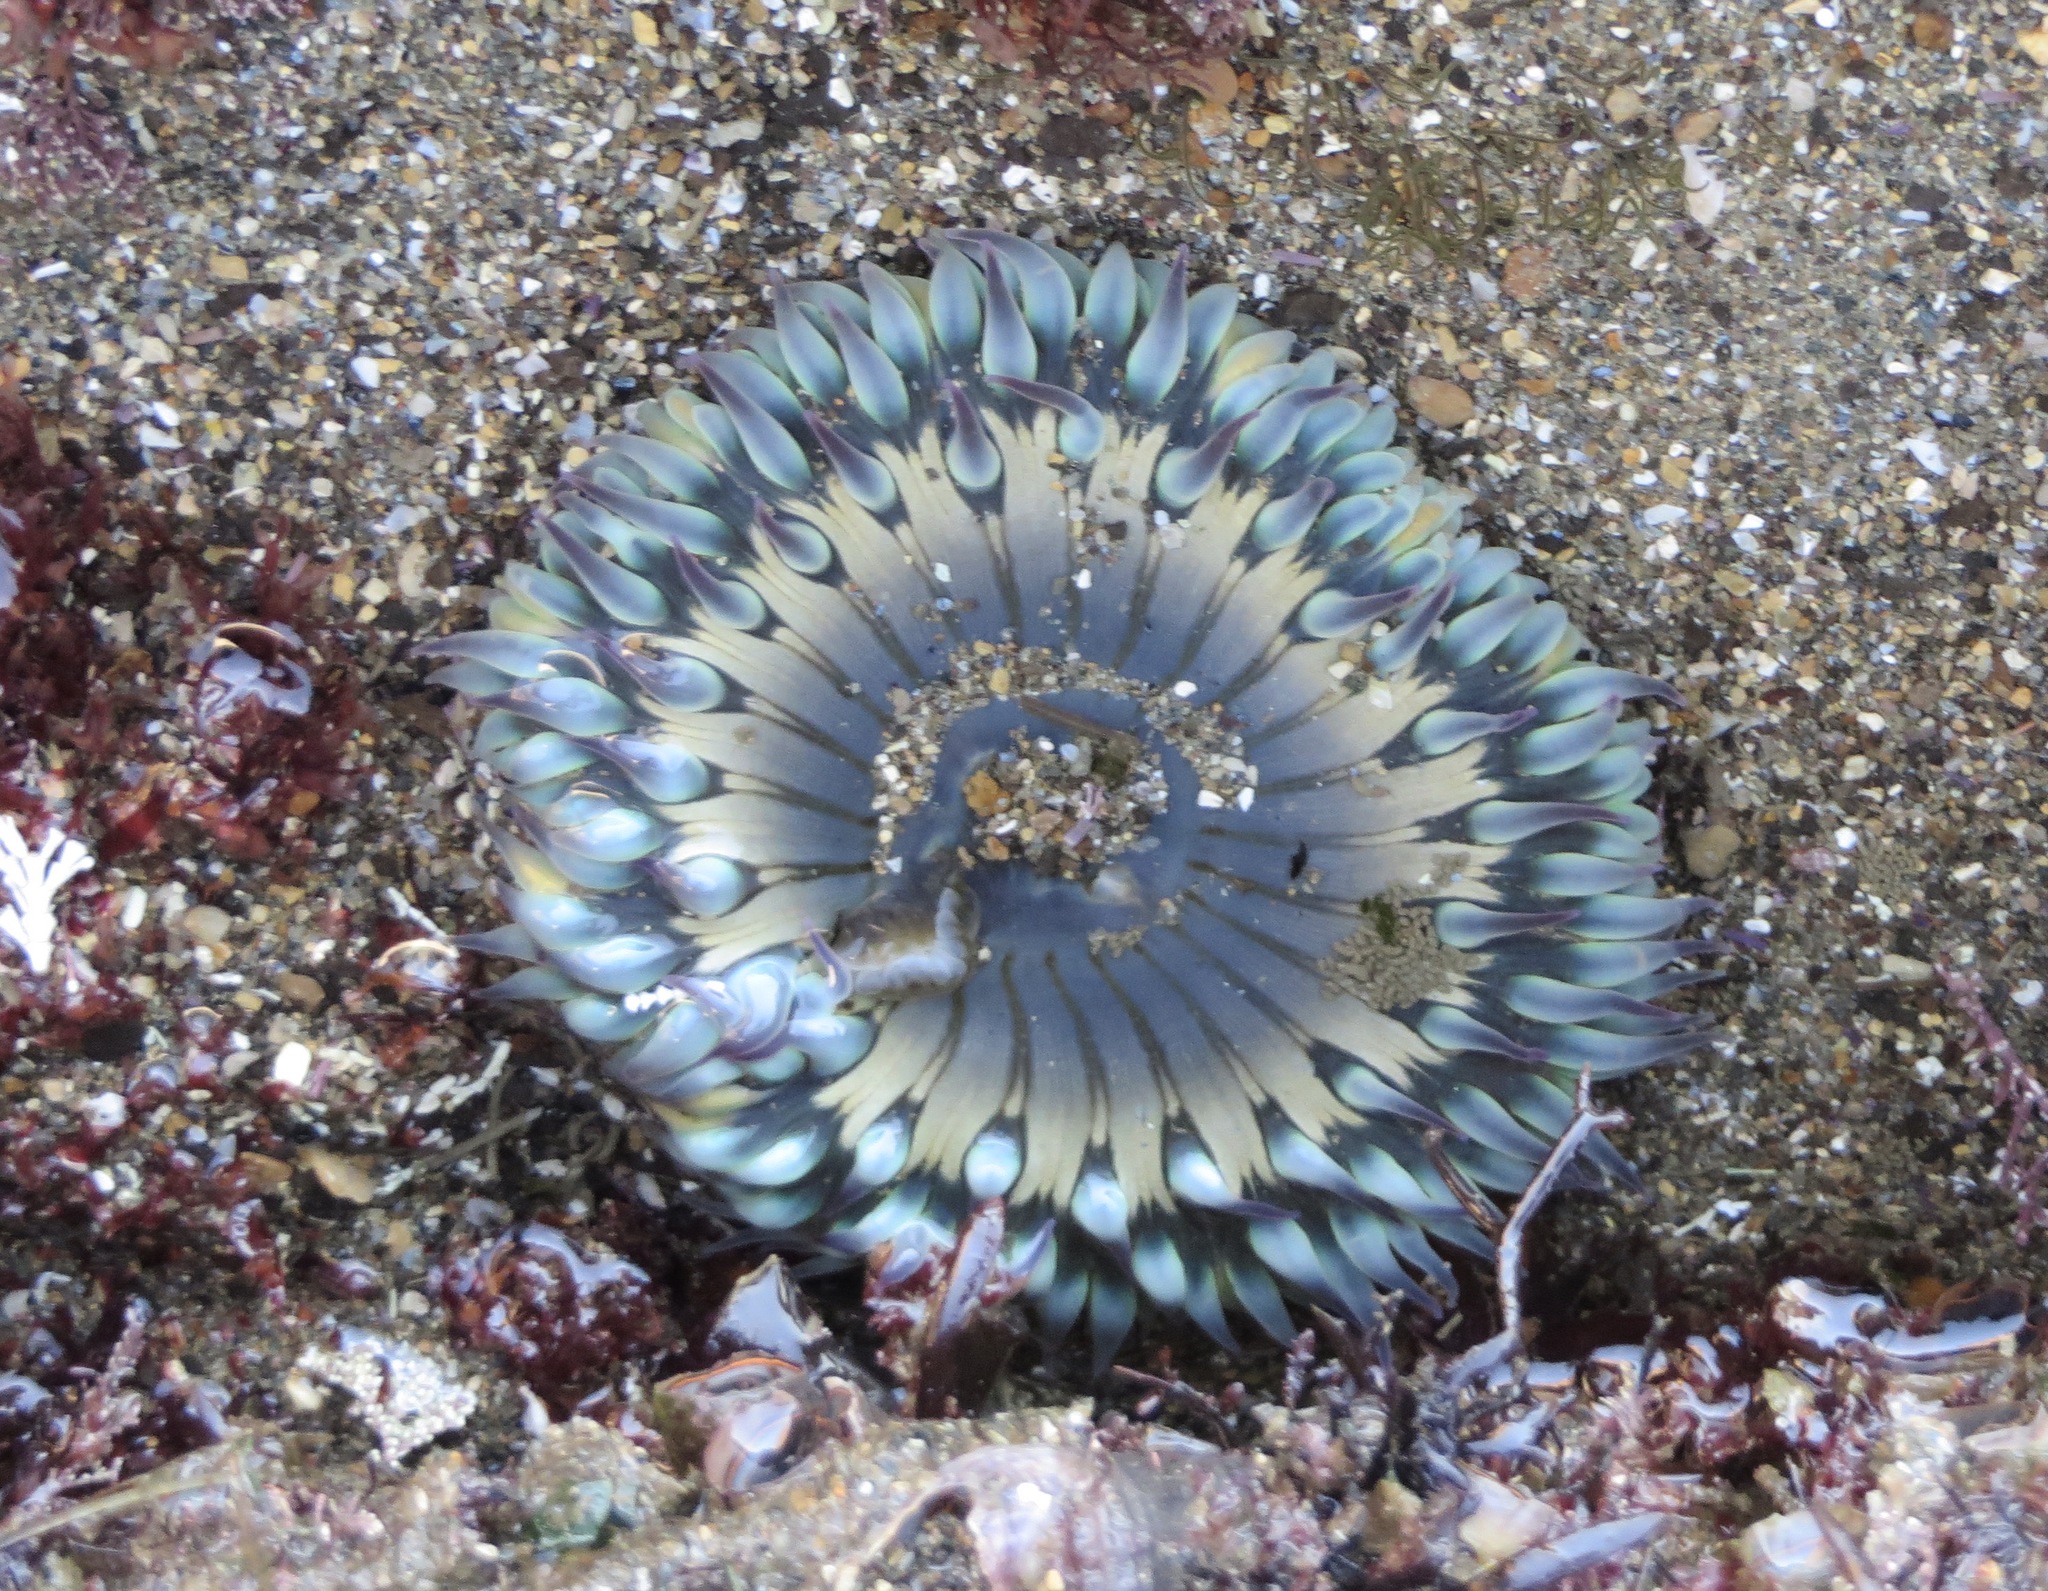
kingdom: Animalia
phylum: Cnidaria
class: Anthozoa
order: Actiniaria
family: Actiniidae
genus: Anthopleura
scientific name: Anthopleura sola
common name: Sun anemone
